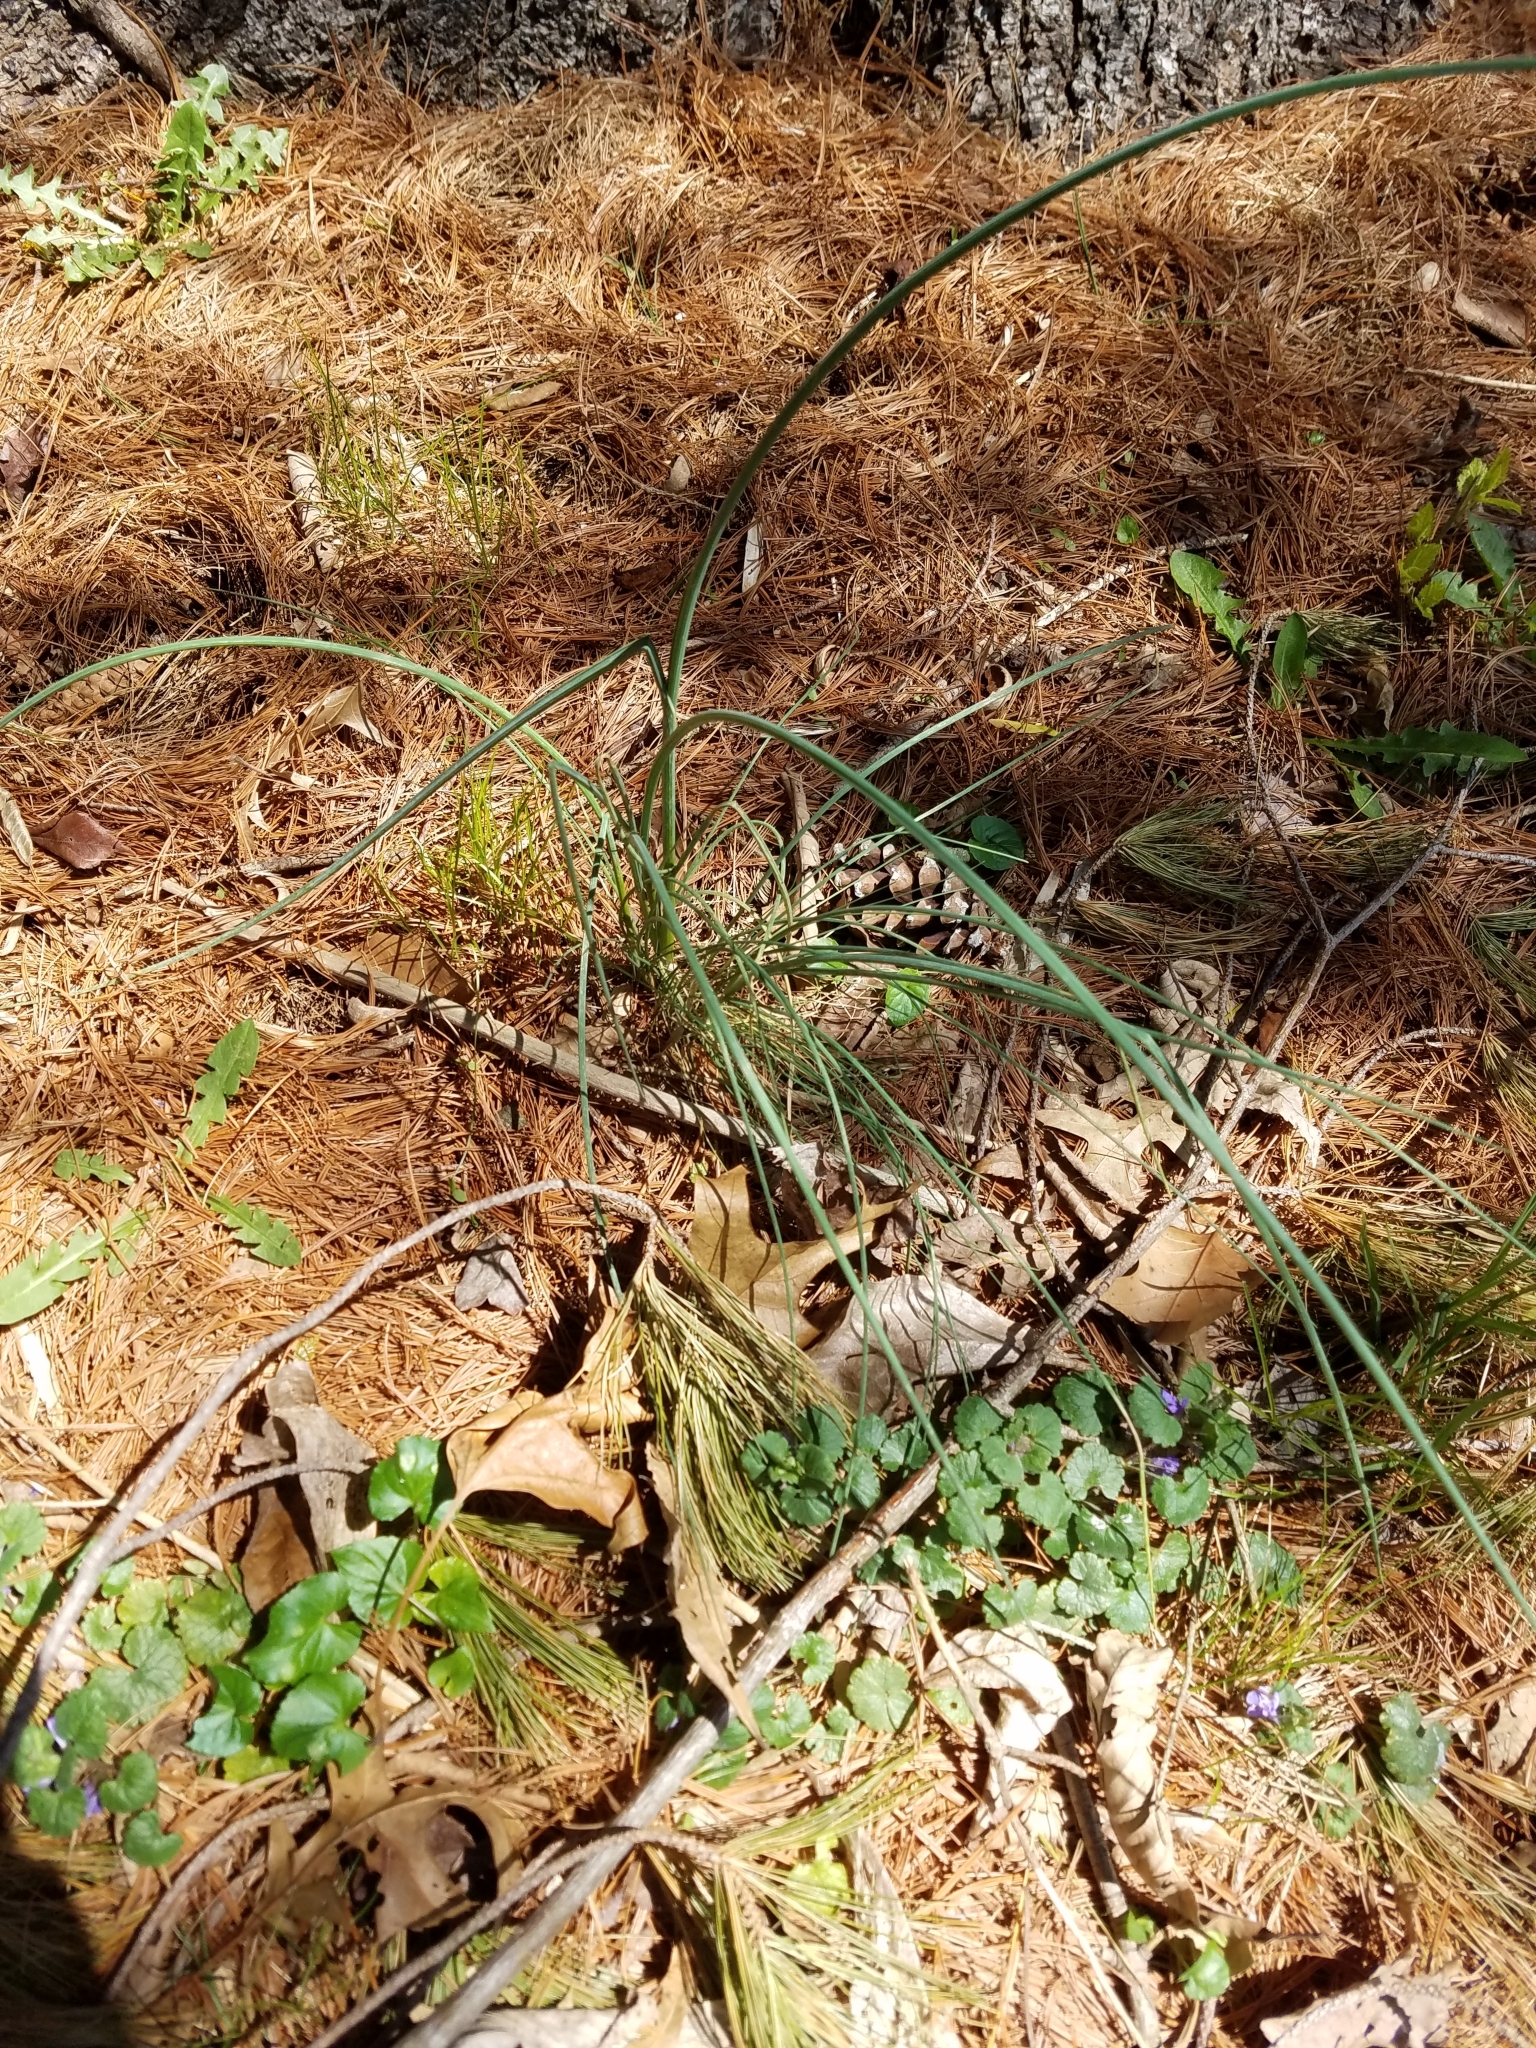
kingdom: Plantae
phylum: Tracheophyta
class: Liliopsida
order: Asparagales
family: Amaryllidaceae
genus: Allium
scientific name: Allium vineale
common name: Crow garlic
